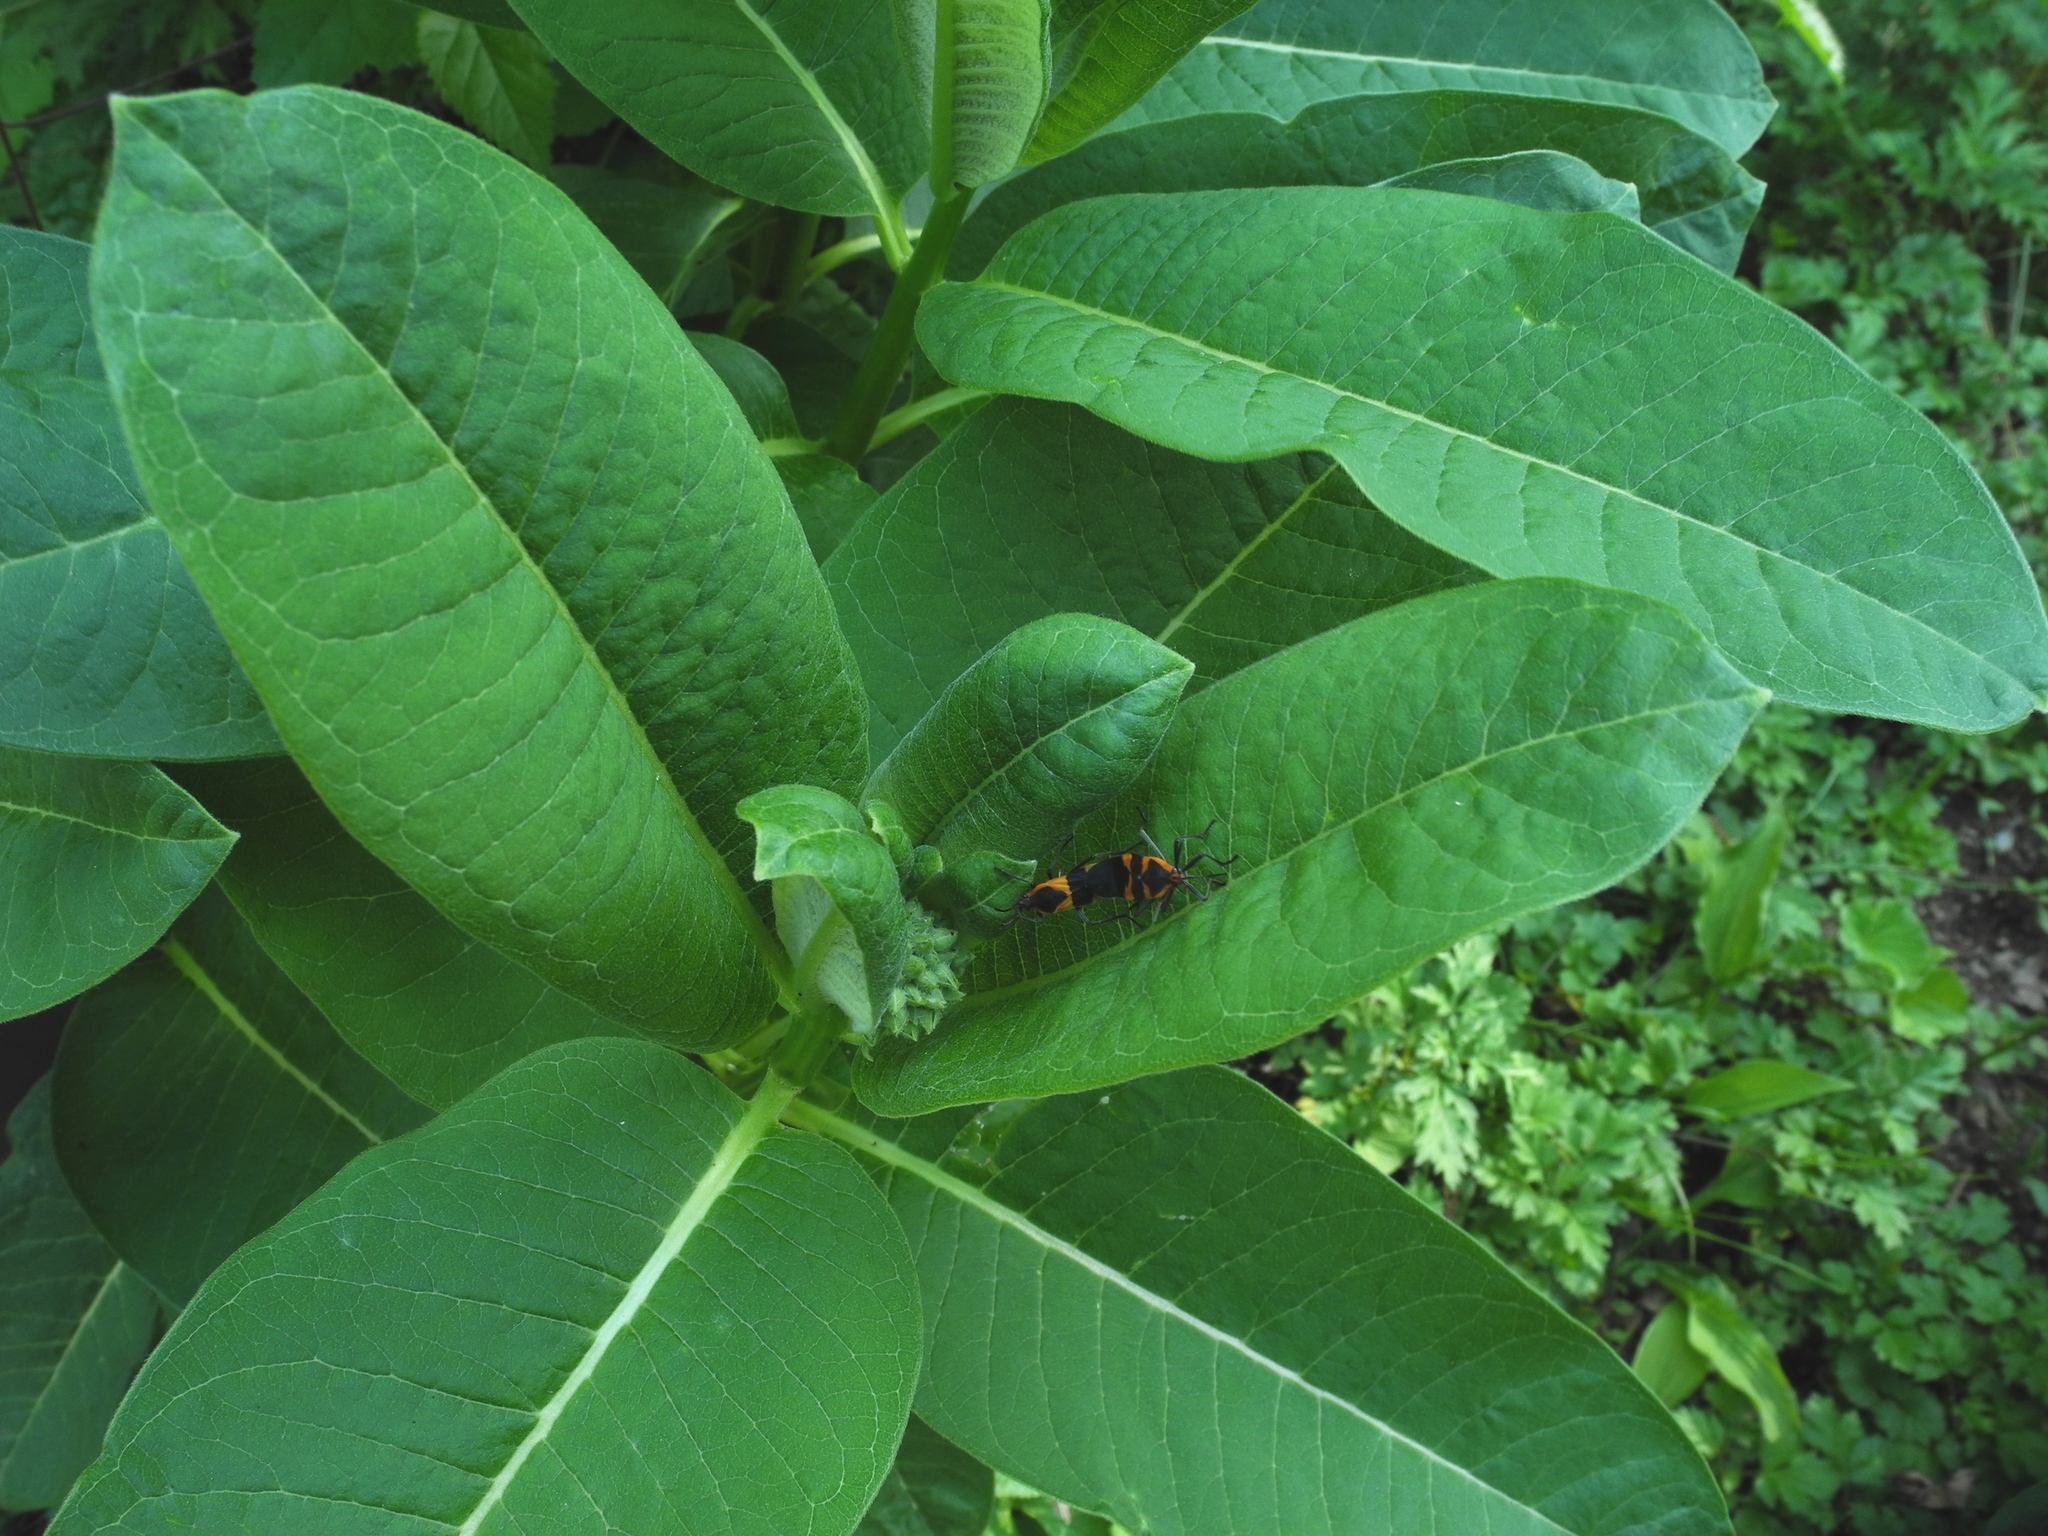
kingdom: Animalia
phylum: Arthropoda
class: Insecta
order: Hemiptera
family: Lygaeidae
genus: Oncopeltus
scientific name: Oncopeltus fasciatus
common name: Large milkweed bug
